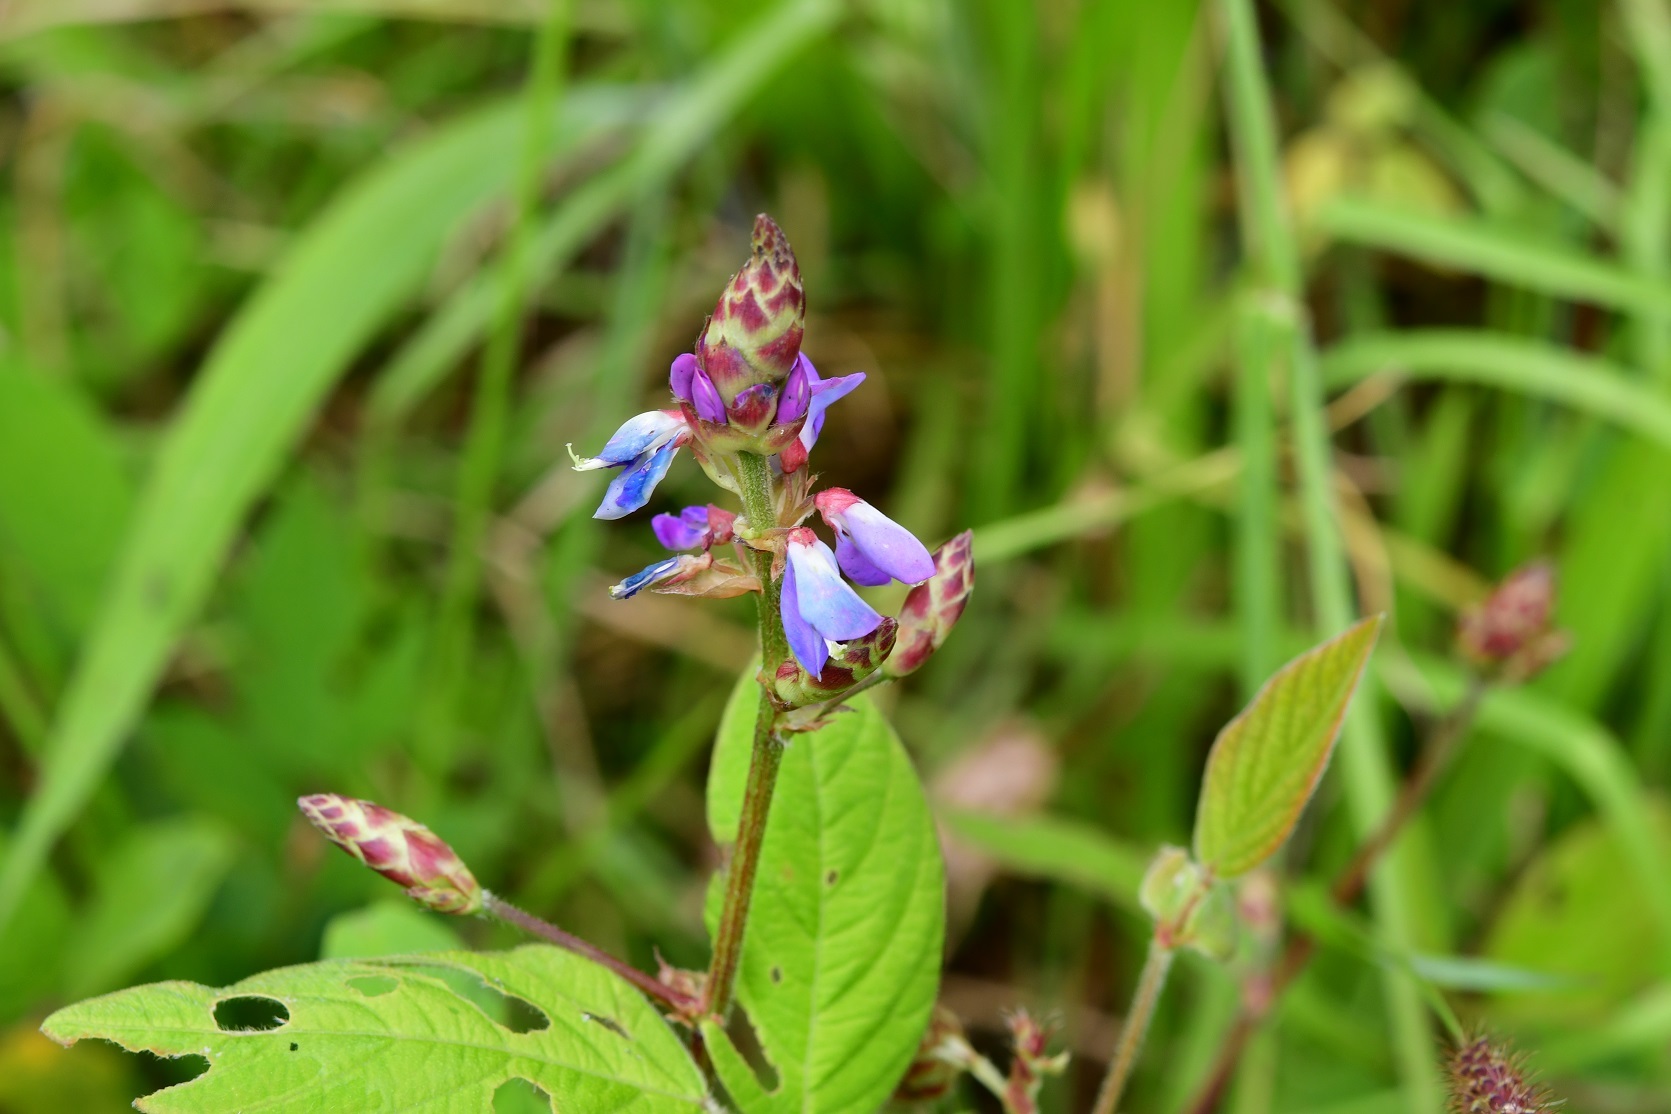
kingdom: Plantae
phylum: Tracheophyta
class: Magnoliopsida
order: Fabales
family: Fabaceae
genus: Desmodium
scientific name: Desmodium pringlei
